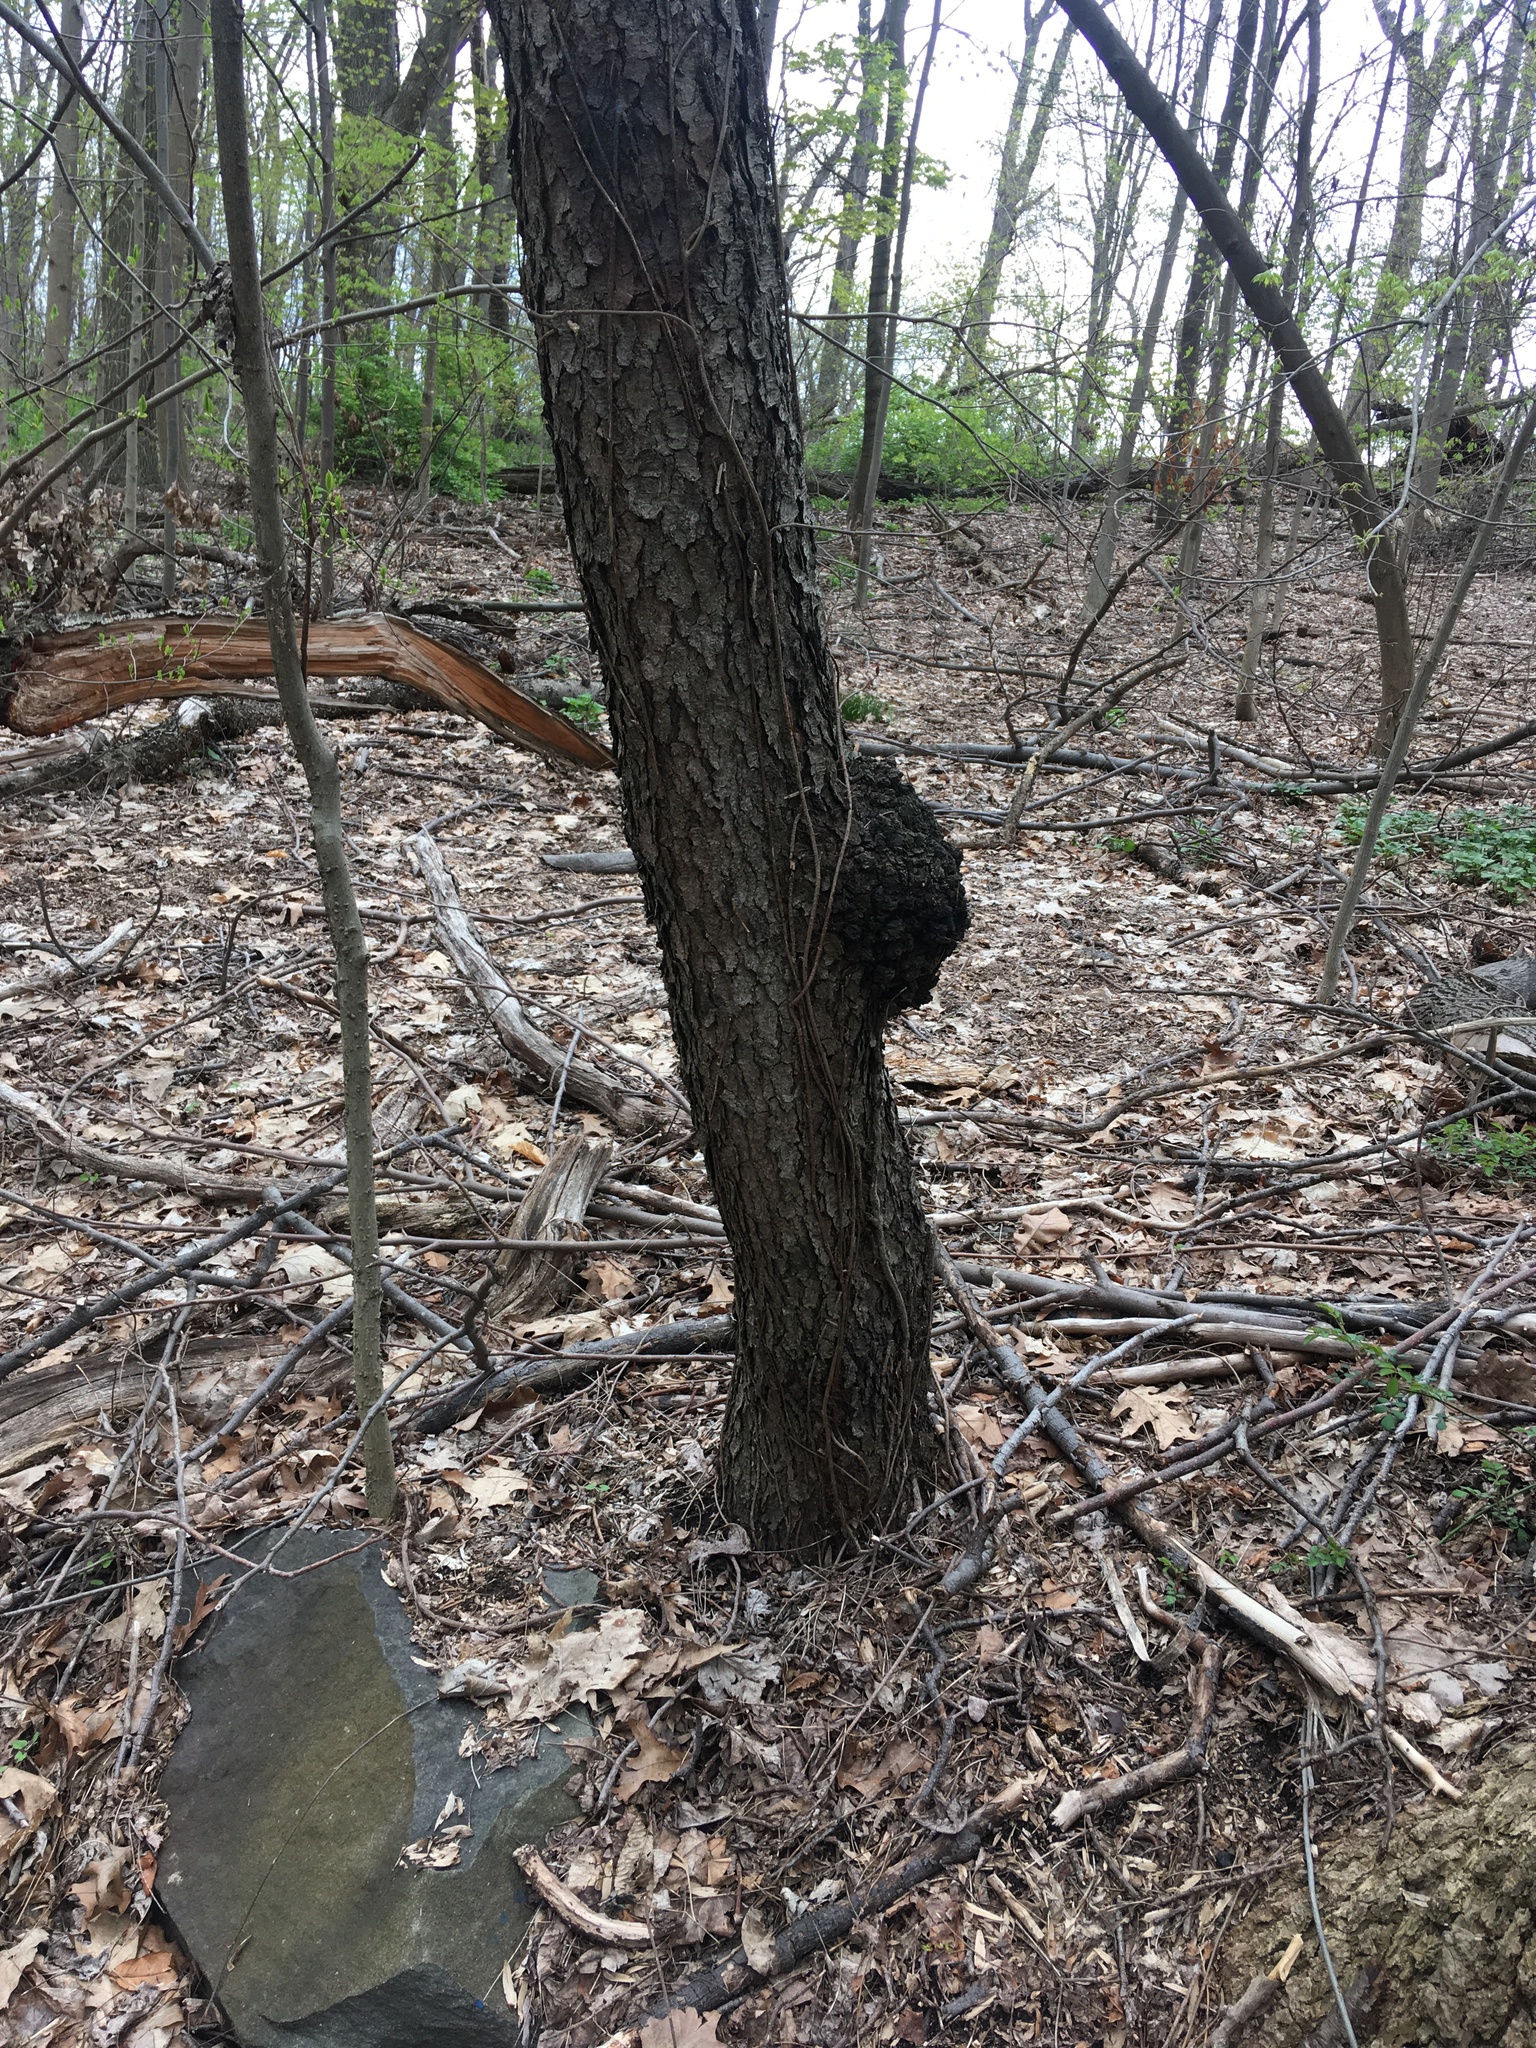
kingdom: Plantae
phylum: Tracheophyta
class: Magnoliopsida
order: Rosales
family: Rosaceae
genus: Prunus
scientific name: Prunus serotina
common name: Black cherry
